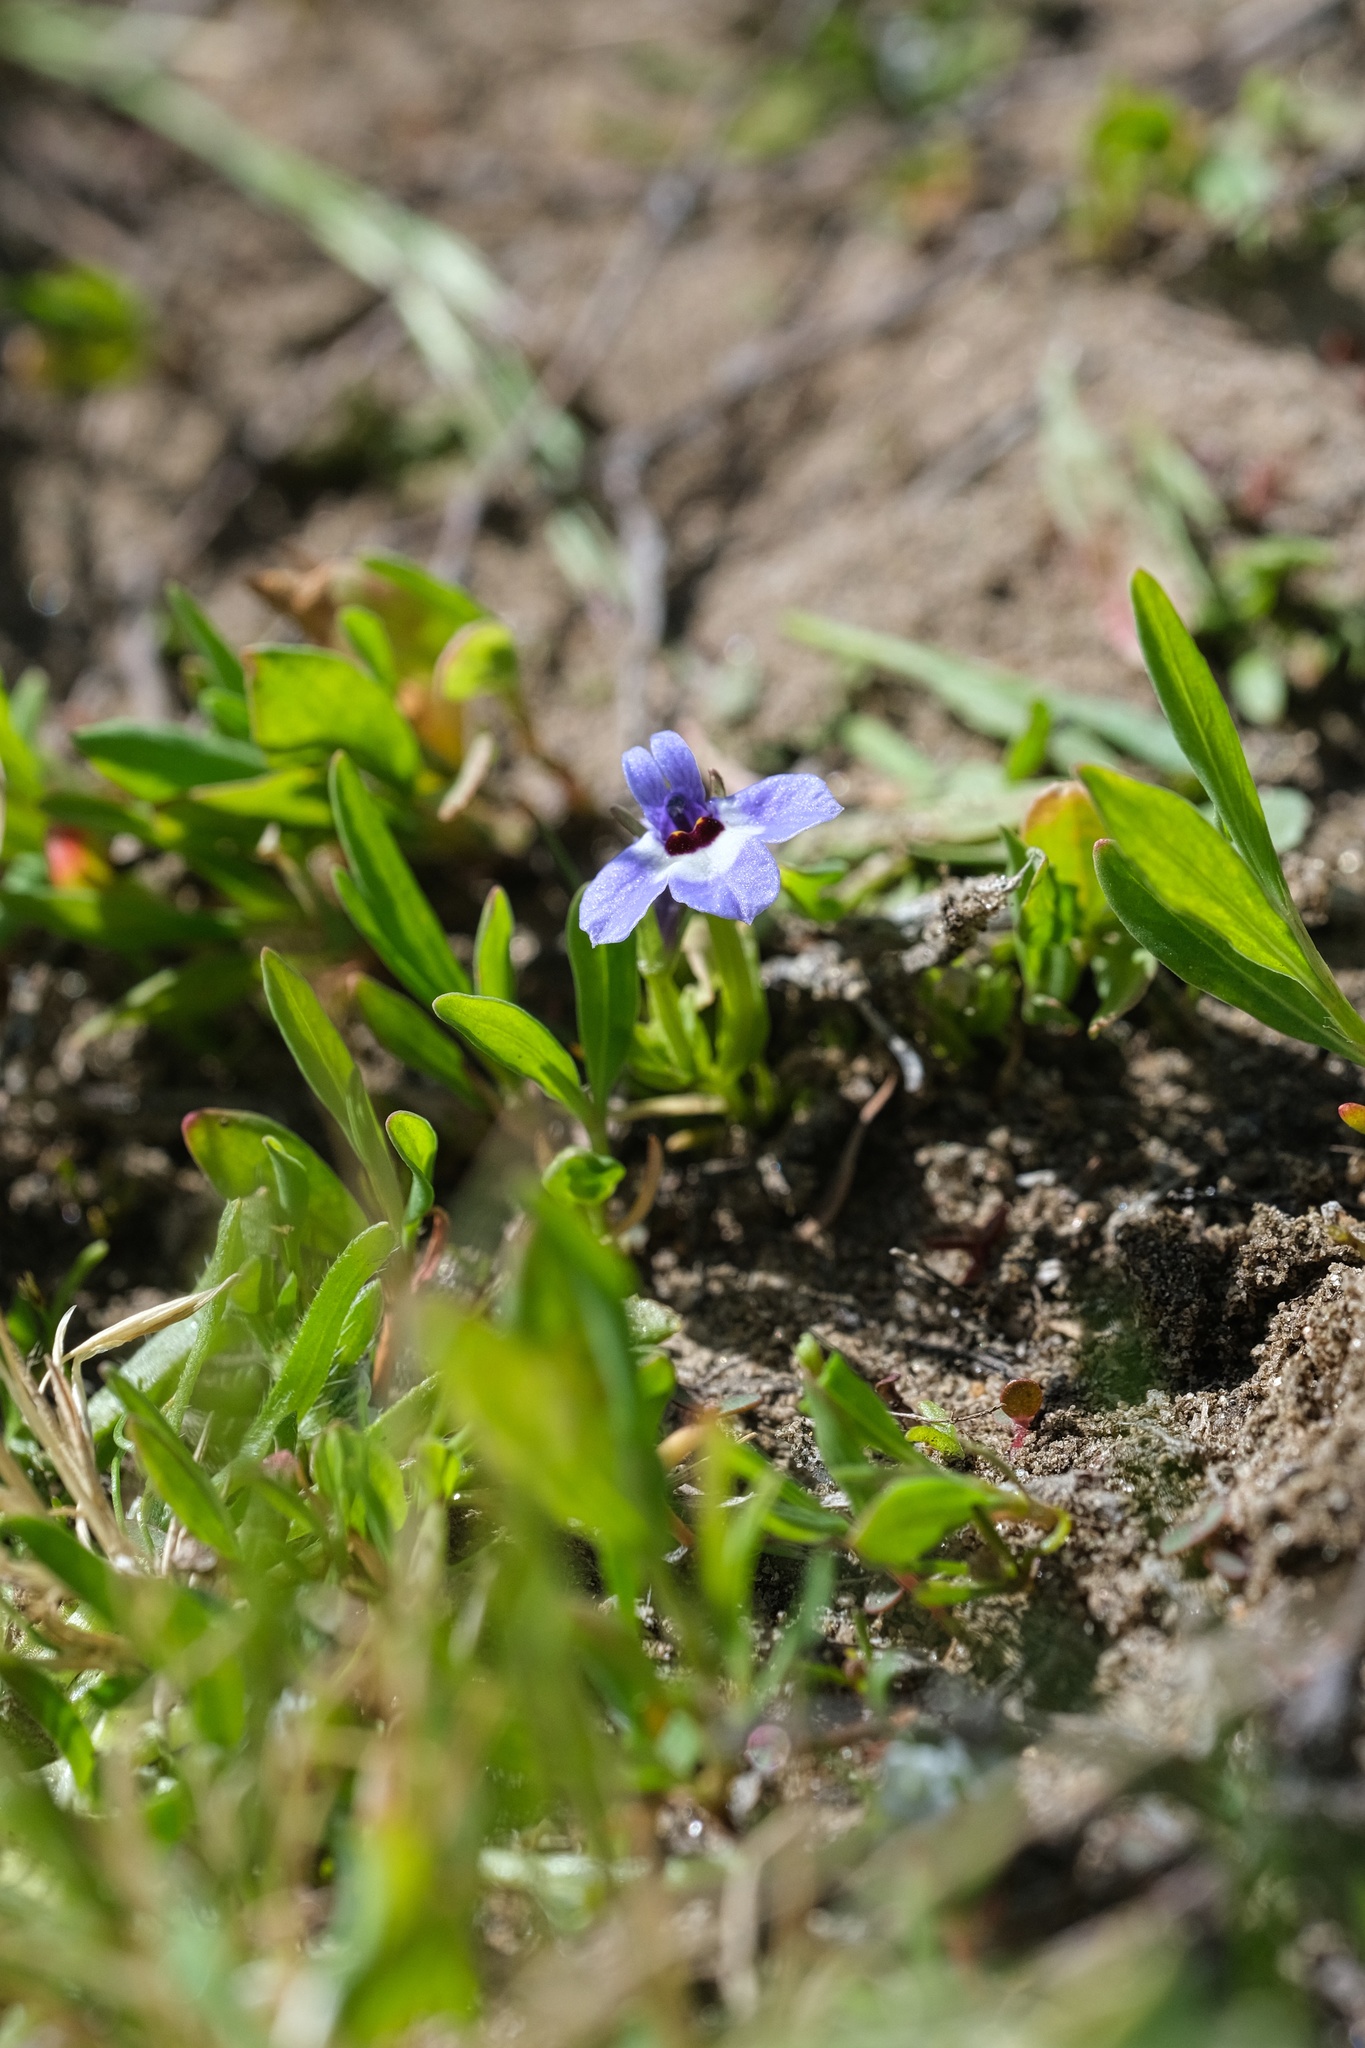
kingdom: Plantae
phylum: Tracheophyta
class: Magnoliopsida
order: Asterales
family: Campanulaceae
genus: Downingia
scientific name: Downingia concolor
